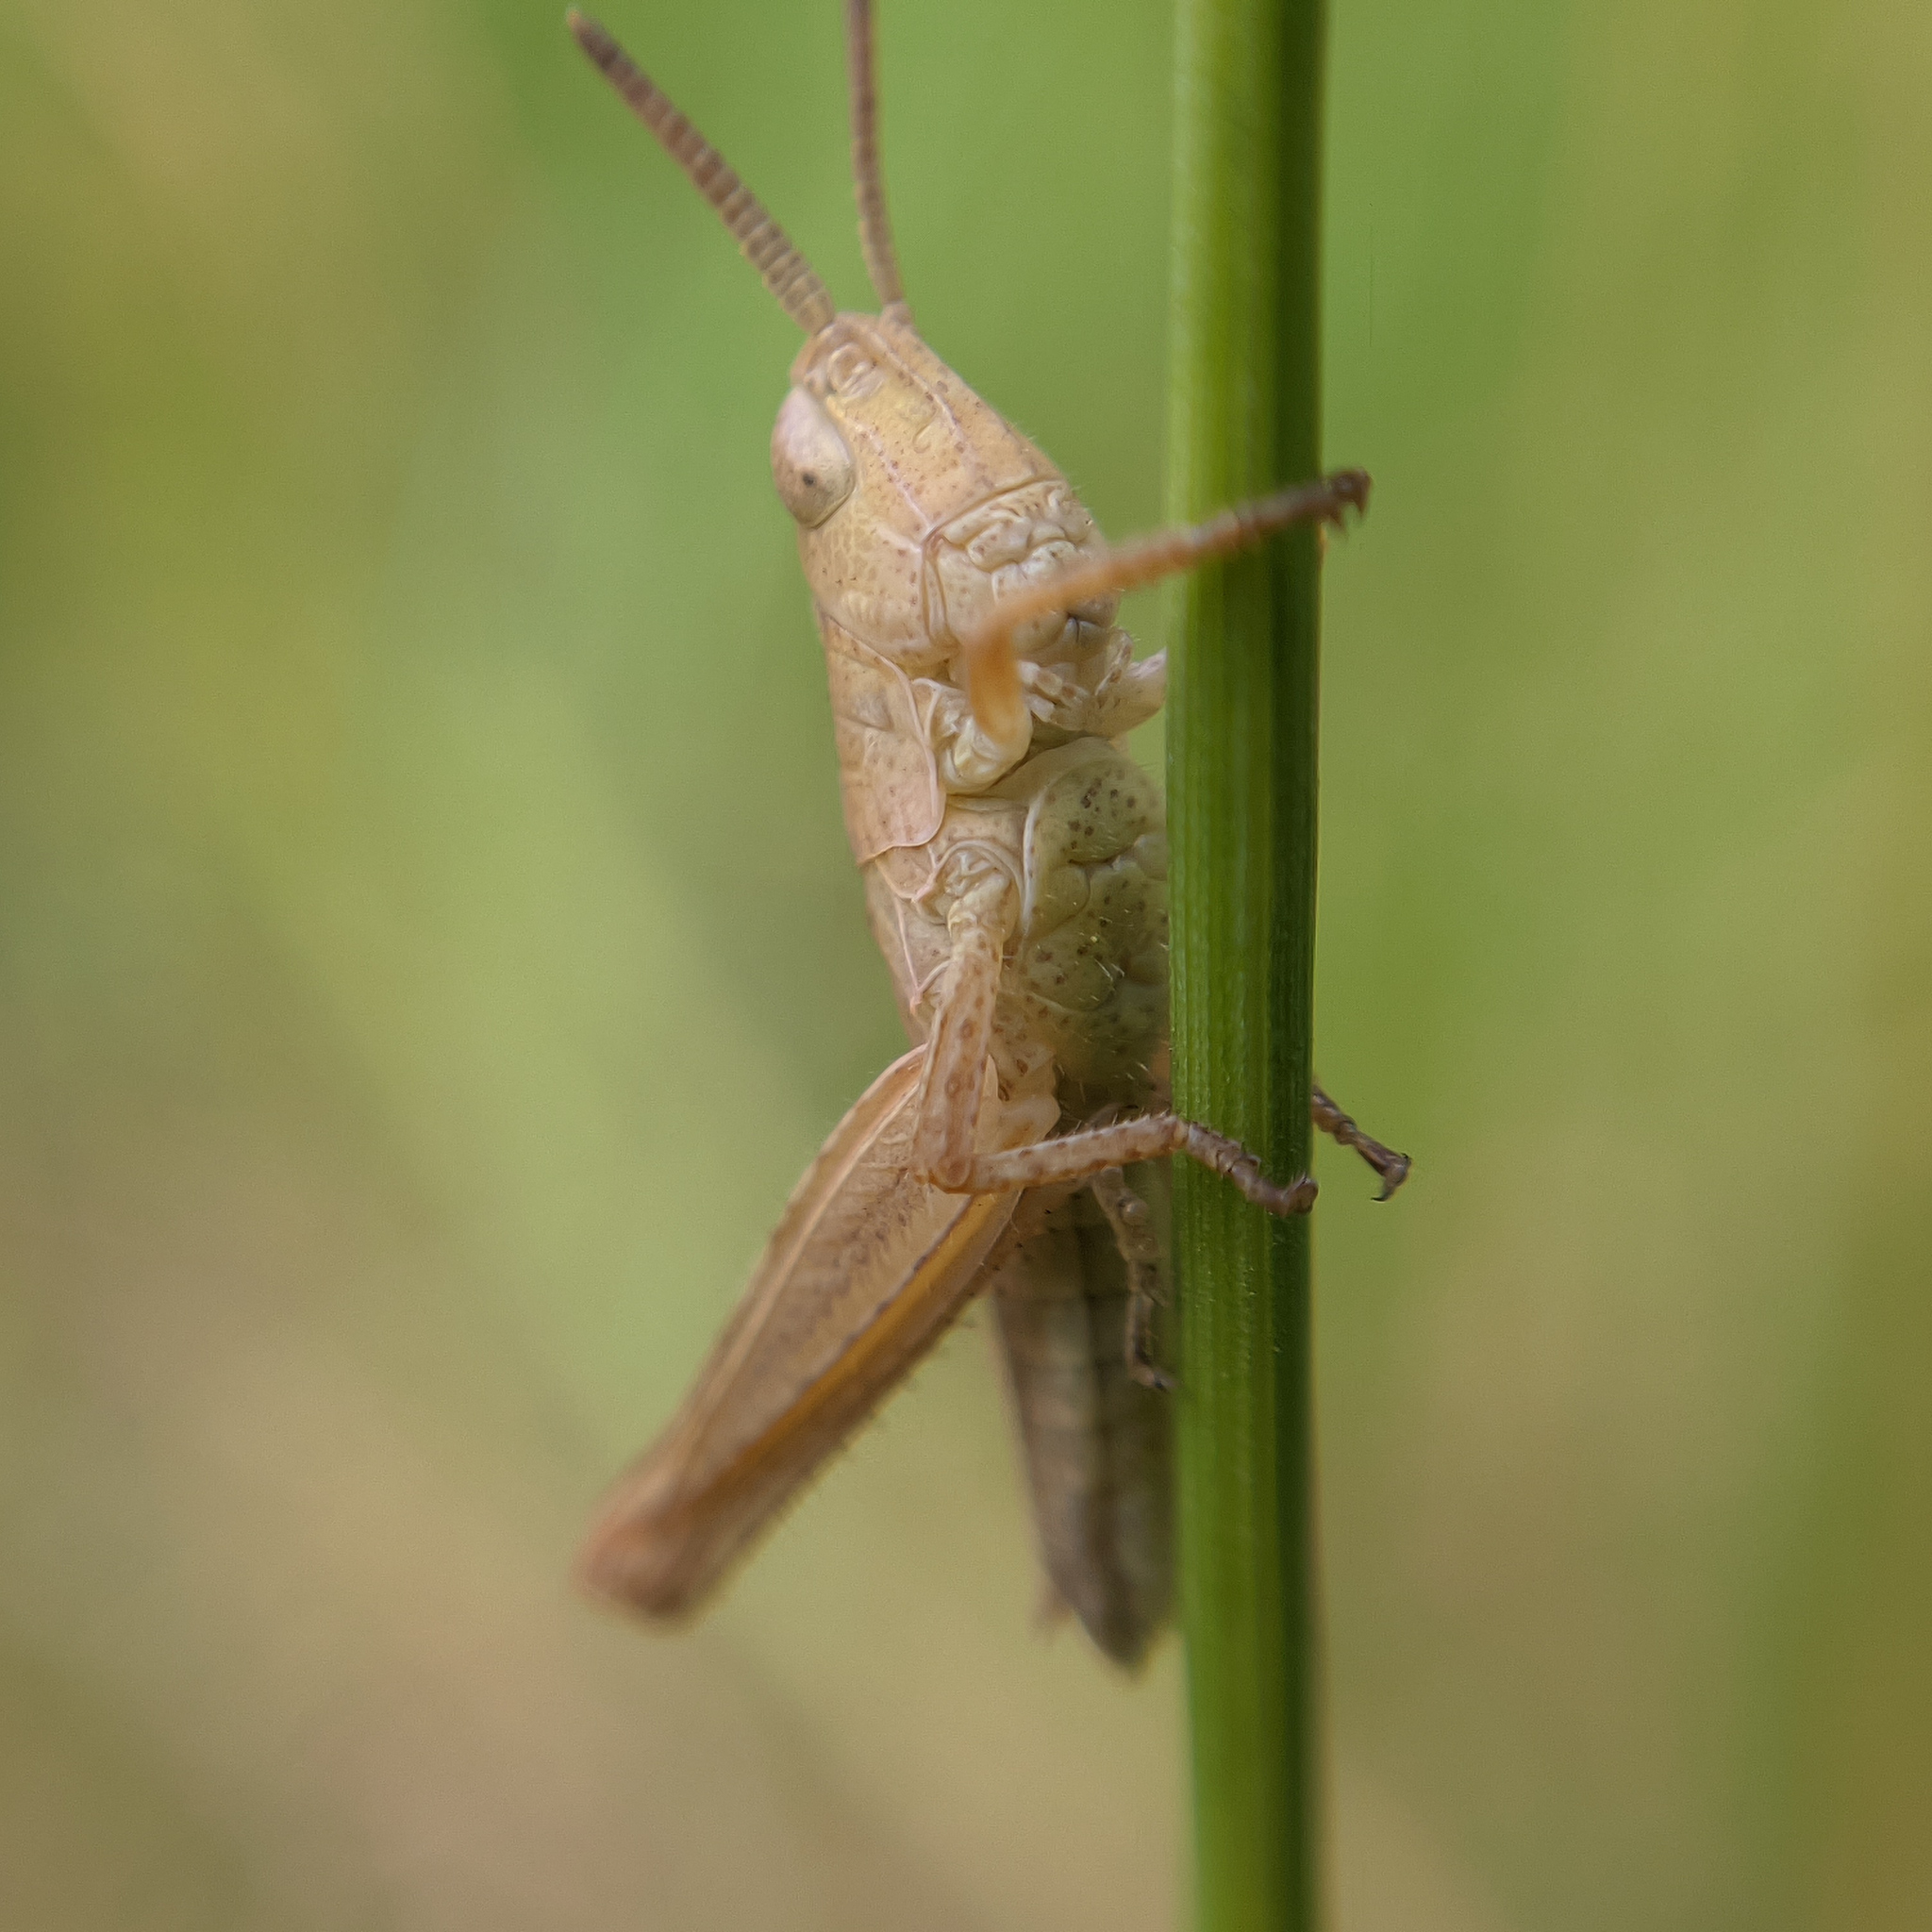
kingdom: Animalia
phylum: Arthropoda
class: Insecta
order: Orthoptera
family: Acrididae
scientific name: Acrididae
